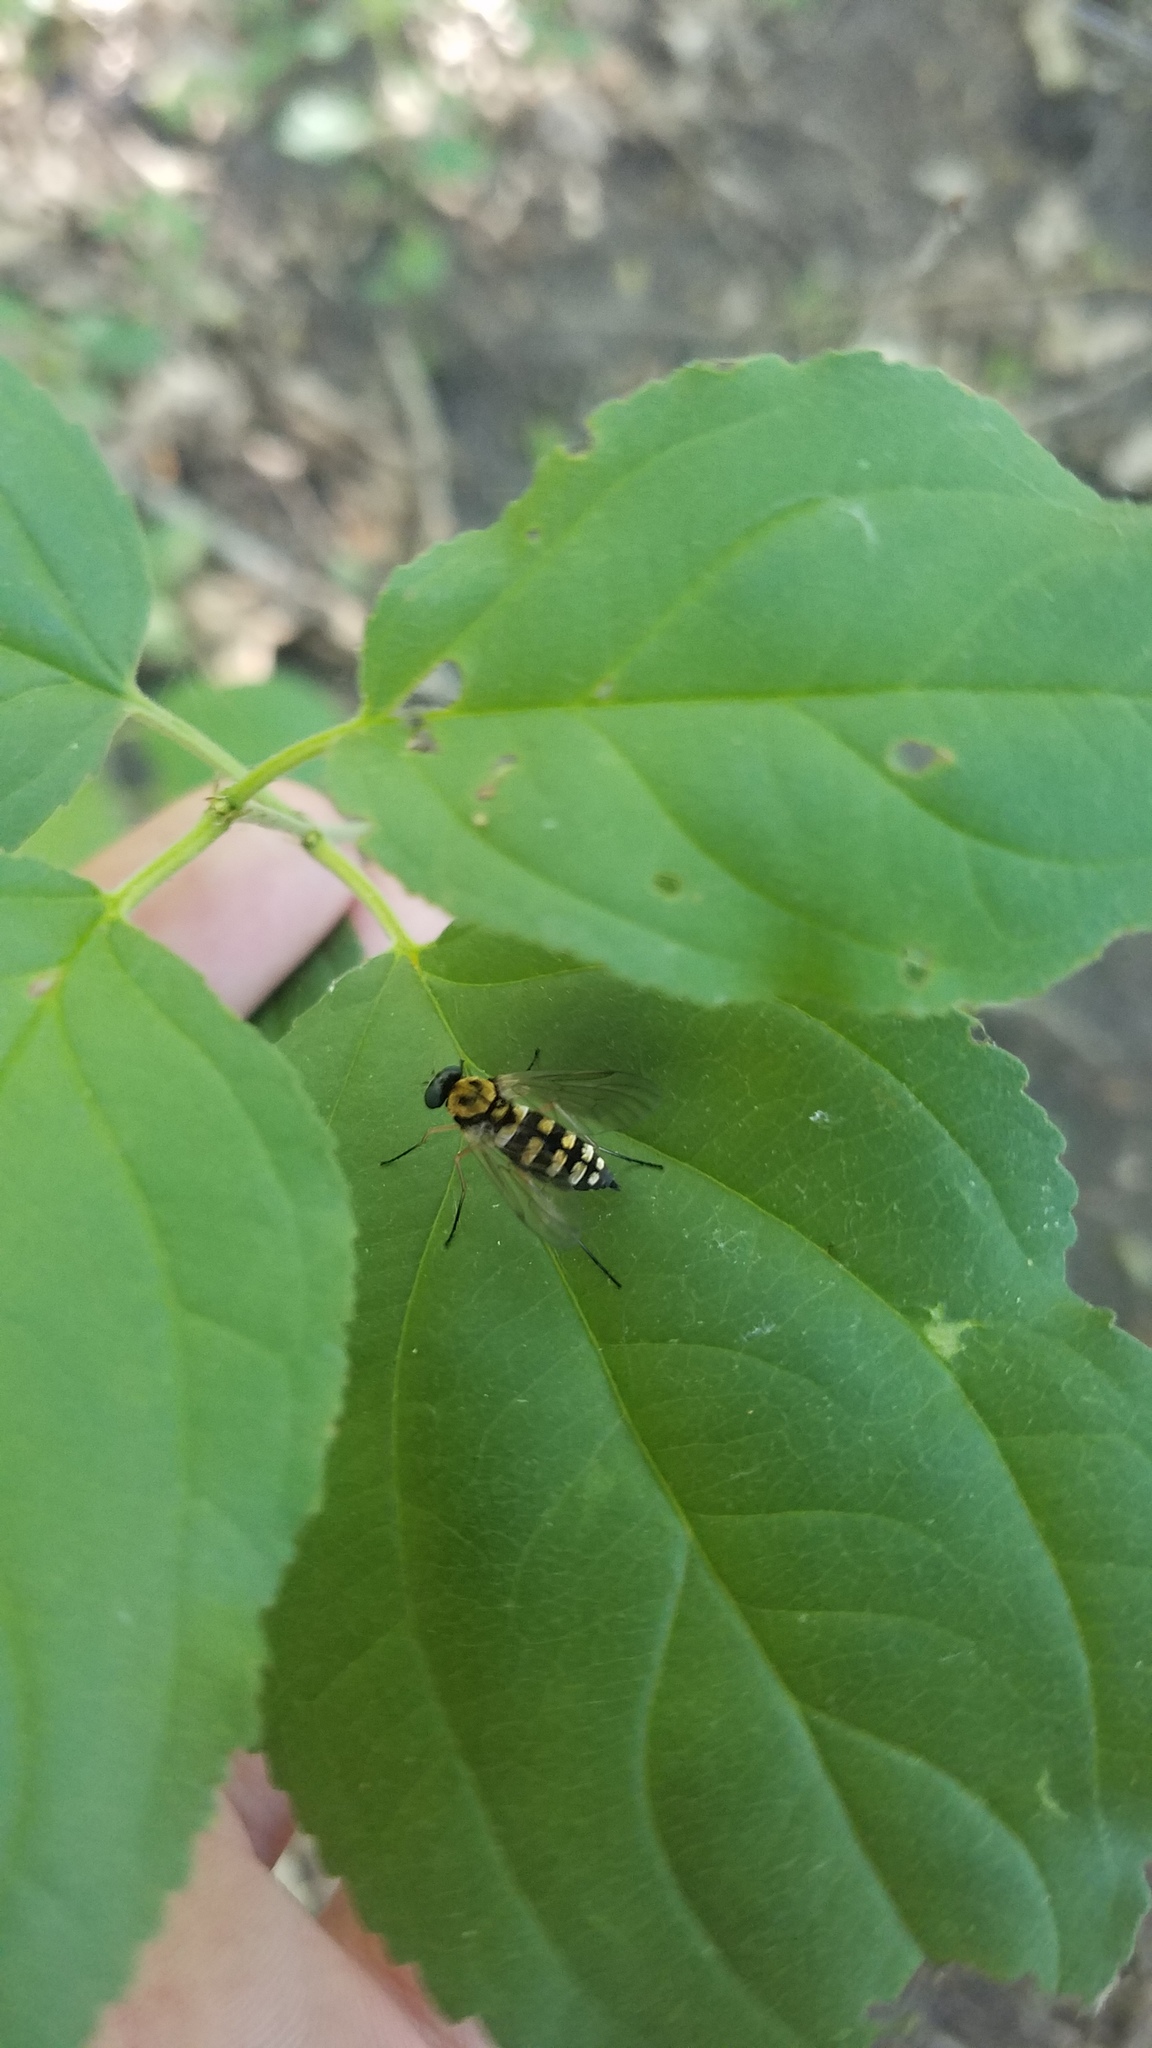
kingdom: Animalia
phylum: Arthropoda
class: Insecta
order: Diptera
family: Rhagionidae
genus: Chrysopilus
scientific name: Chrysopilus ornatus
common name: Ornate snipe fly
